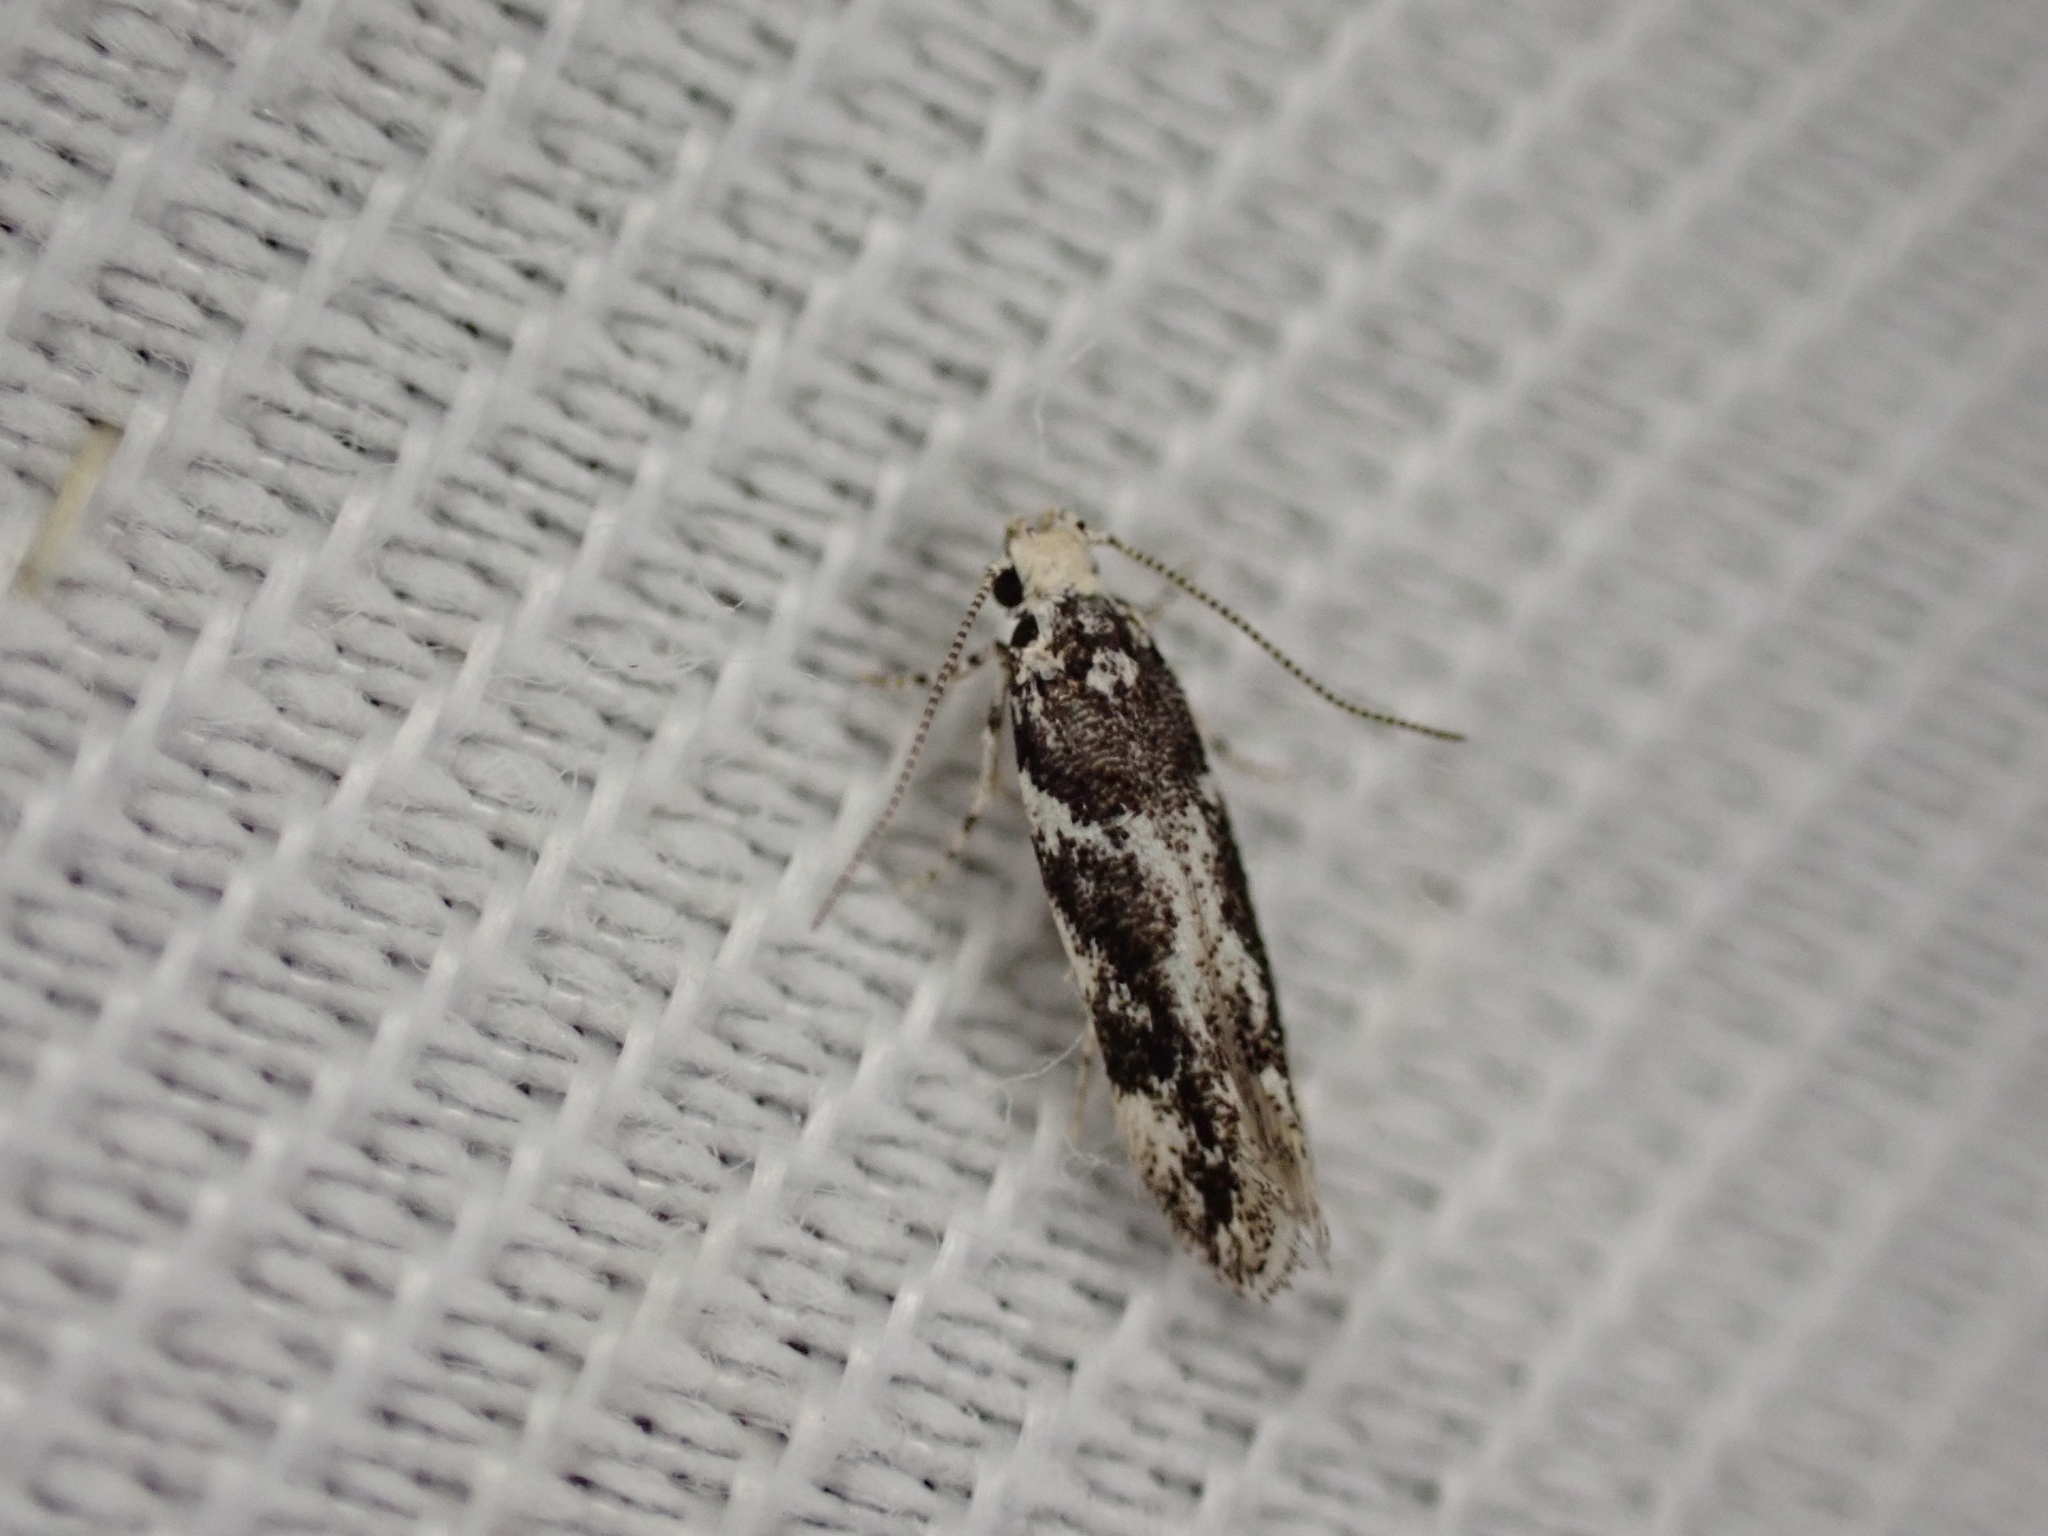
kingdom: Animalia
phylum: Arthropoda
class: Insecta
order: Lepidoptera
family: Gelechiidae
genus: Parachronistis
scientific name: Parachronistis albiceps
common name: Wood groundling
